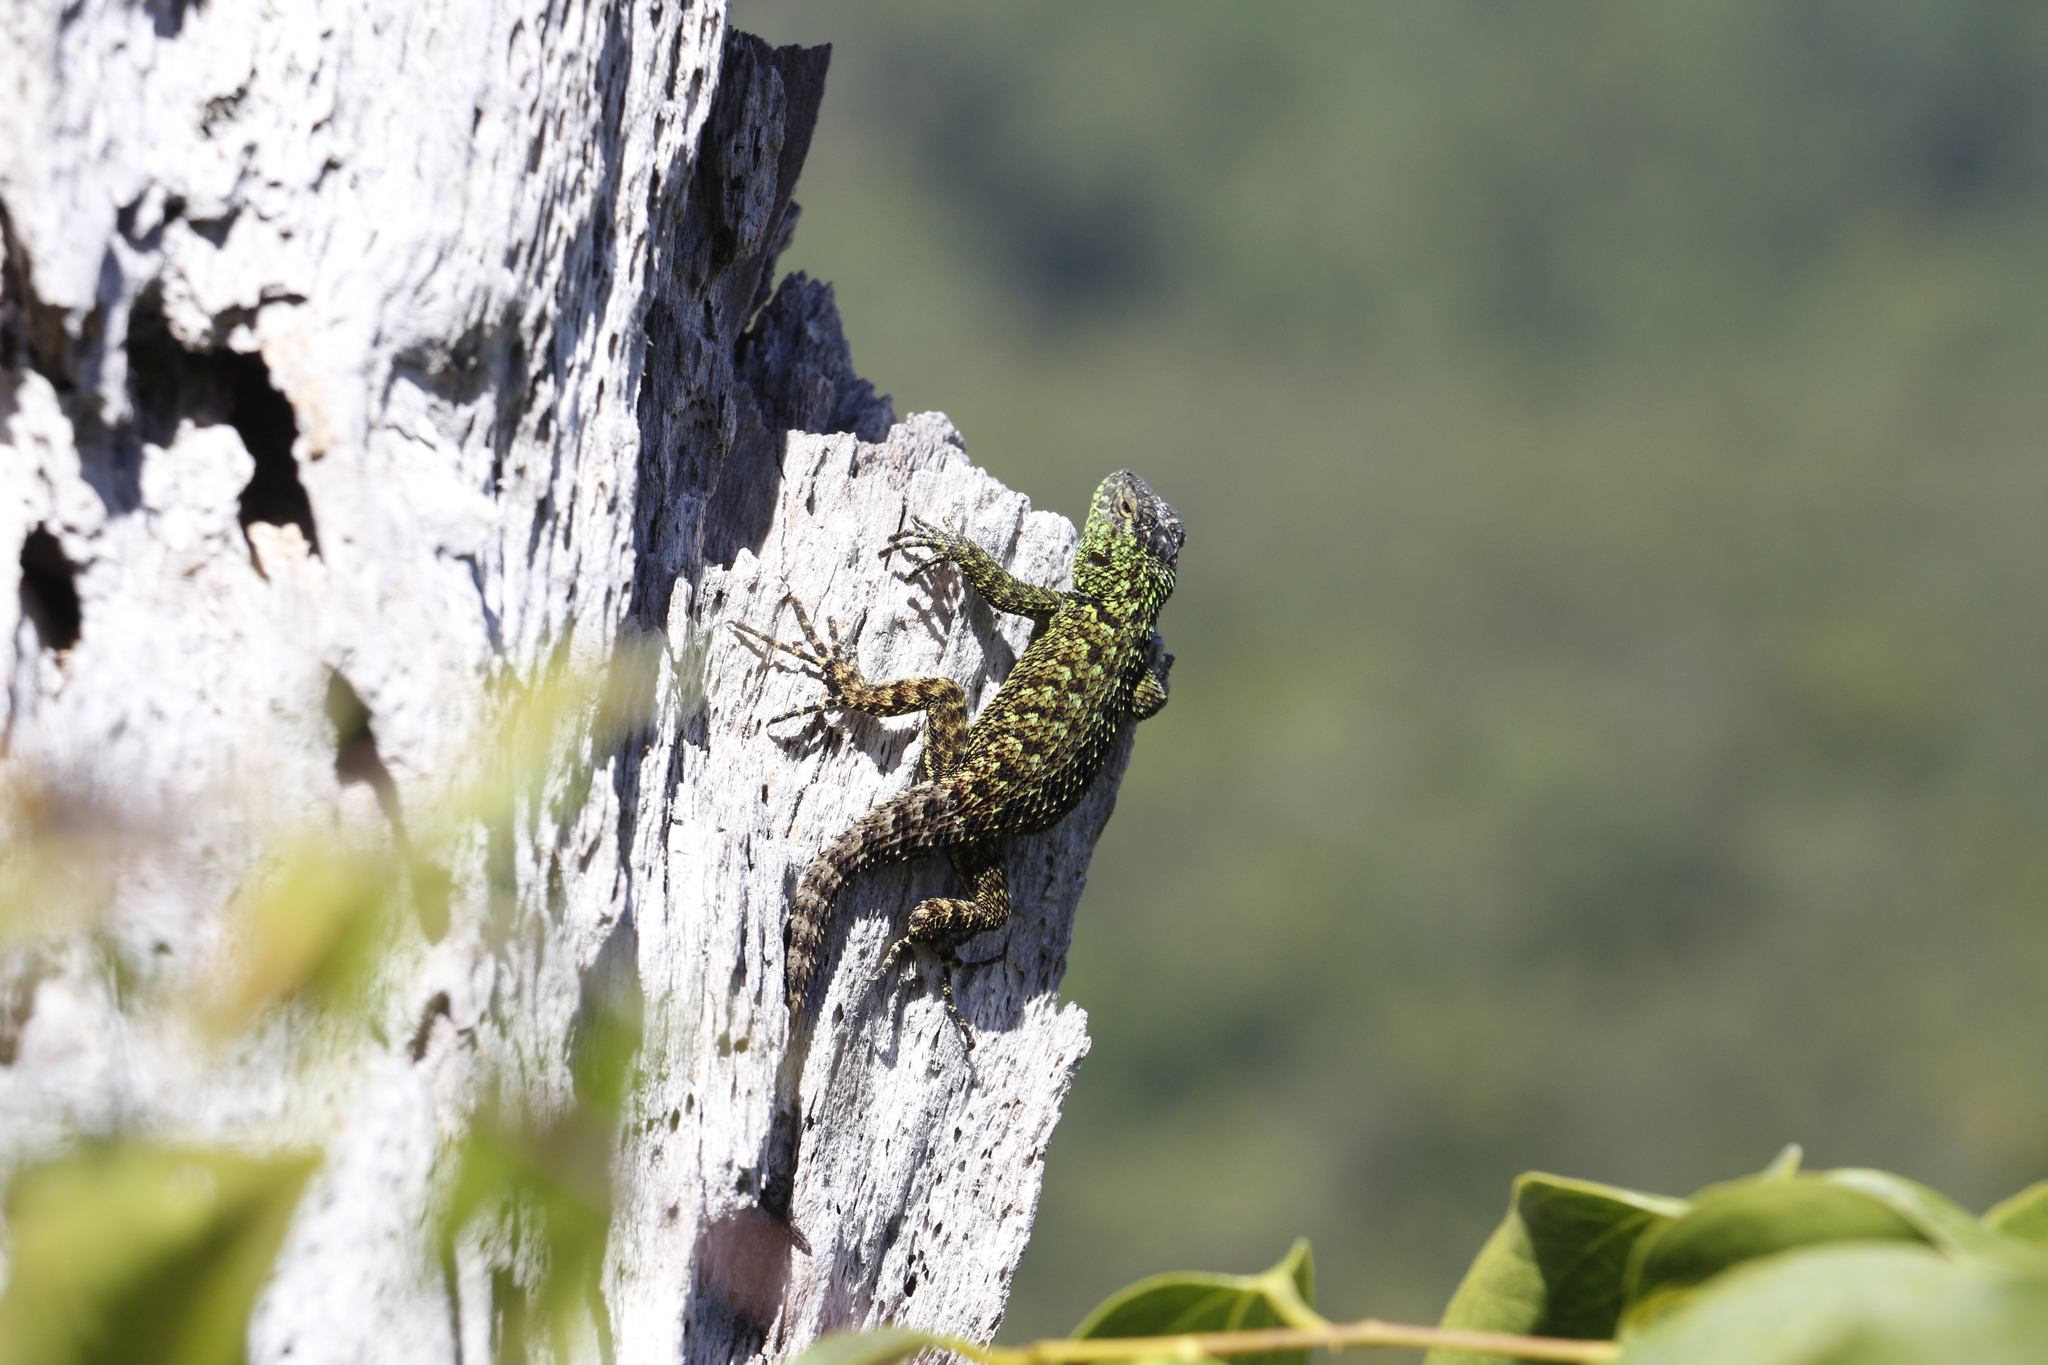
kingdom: Animalia
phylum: Chordata
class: Squamata
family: Phrynosomatidae
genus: Sceloporus
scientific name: Sceloporus schmidti
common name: Schmidt’s emerald lizard
